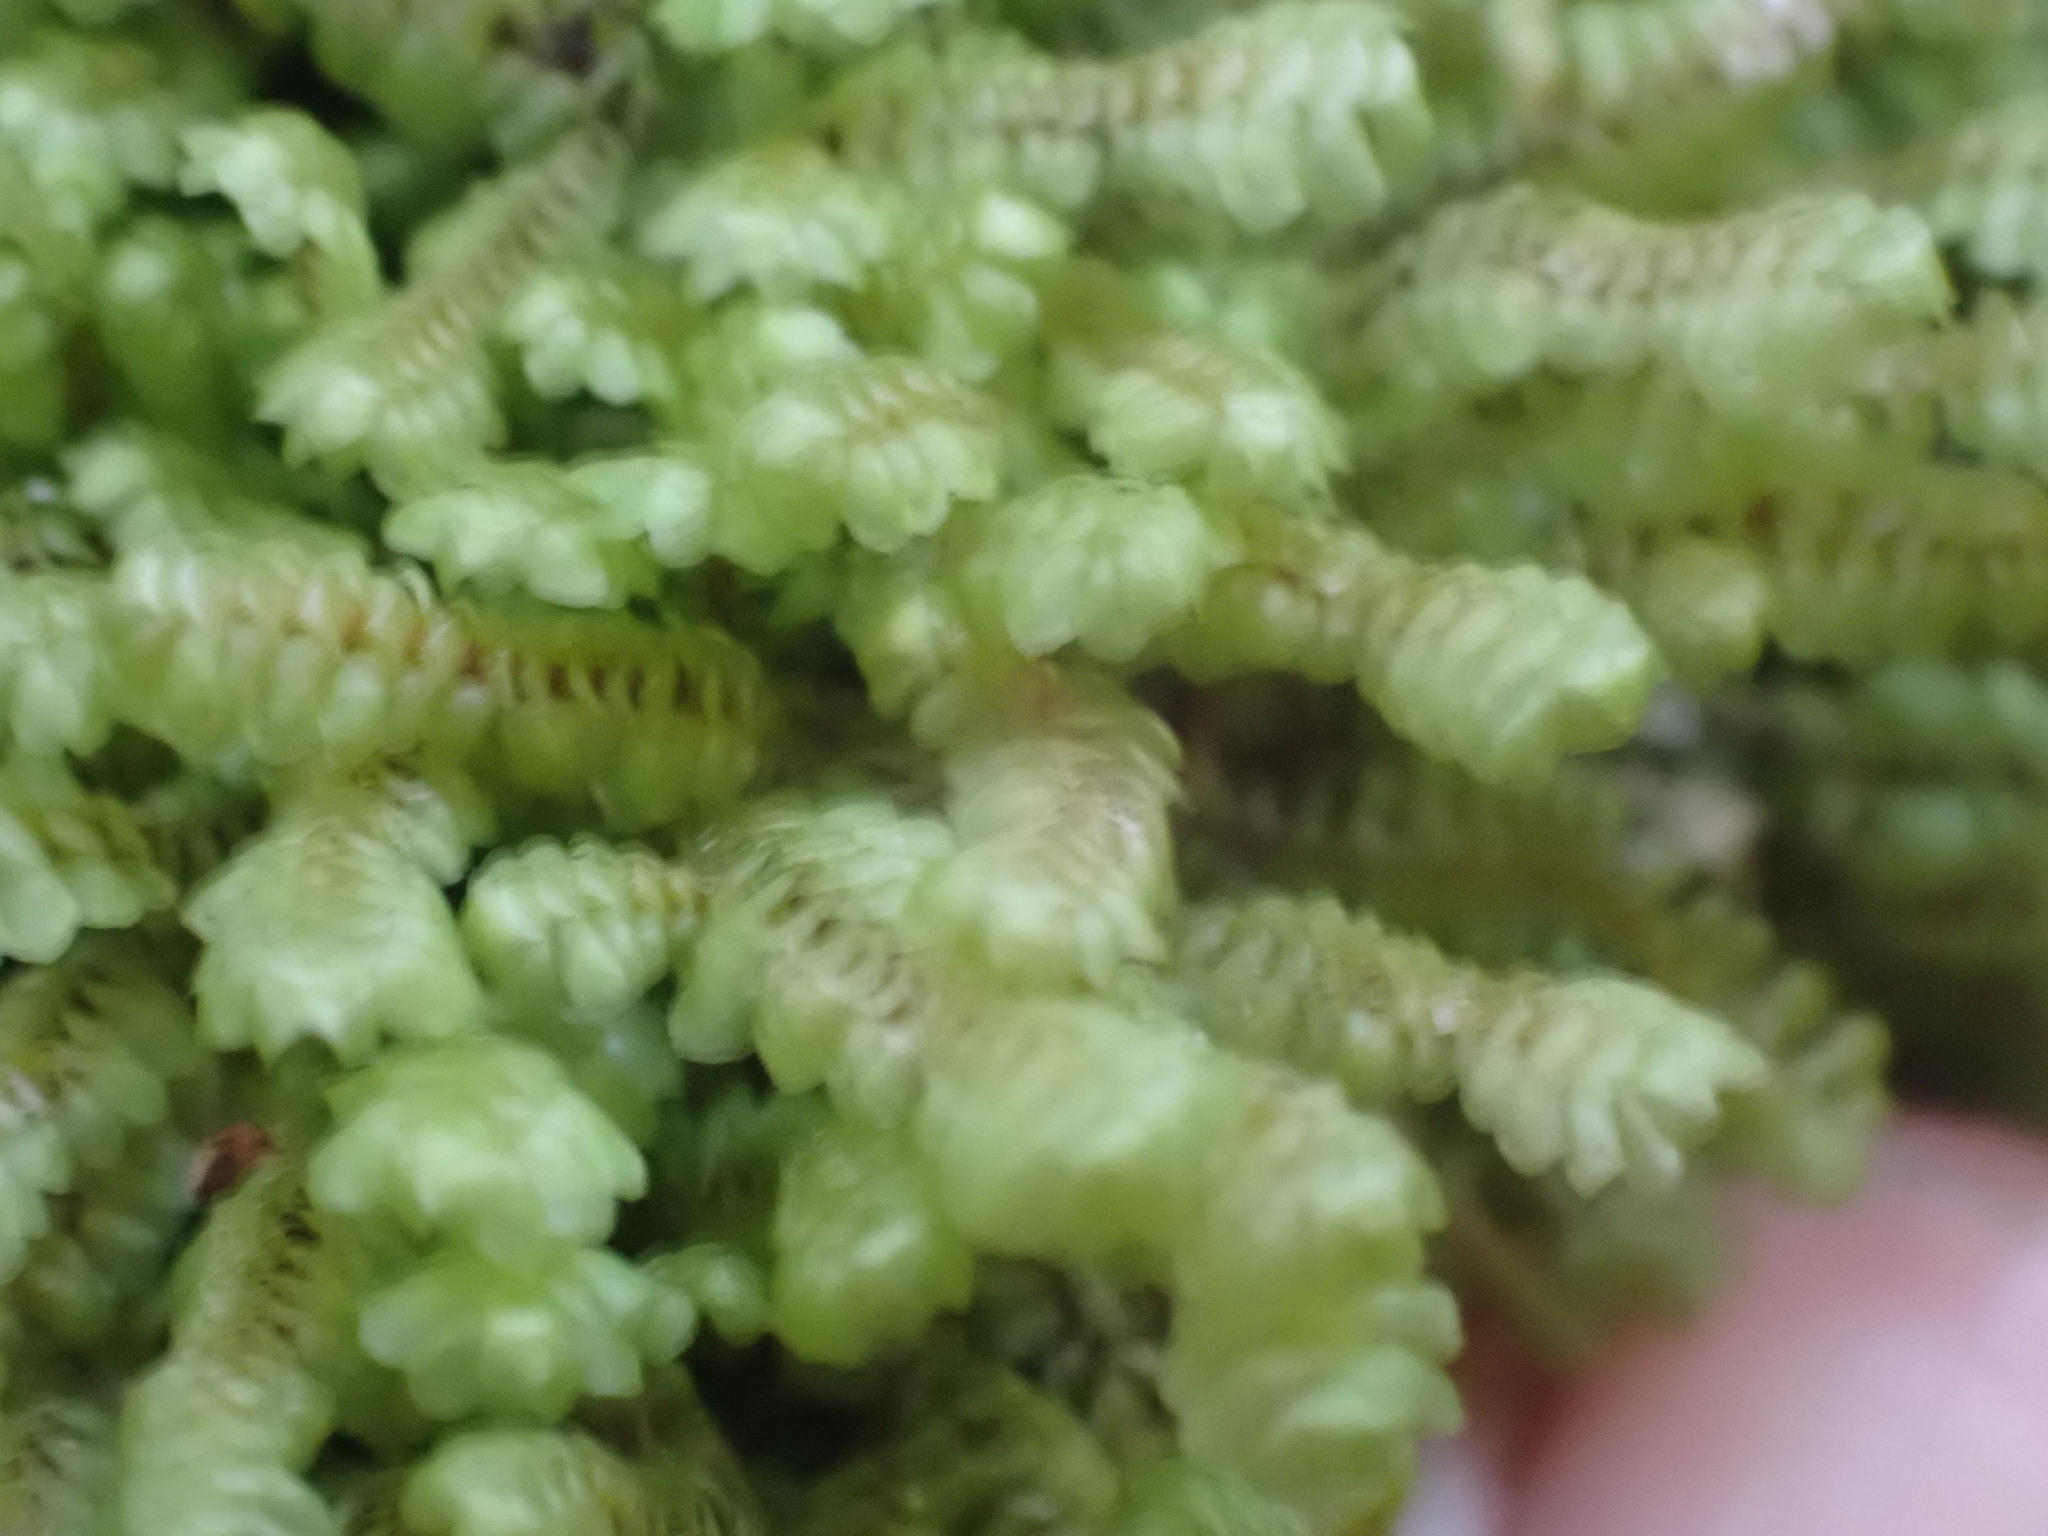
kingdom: Plantae
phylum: Marchantiophyta
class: Jungermanniopsida
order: Jungermanniales
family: Scapaniaceae
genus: Scapania
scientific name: Scapania bolanderi
